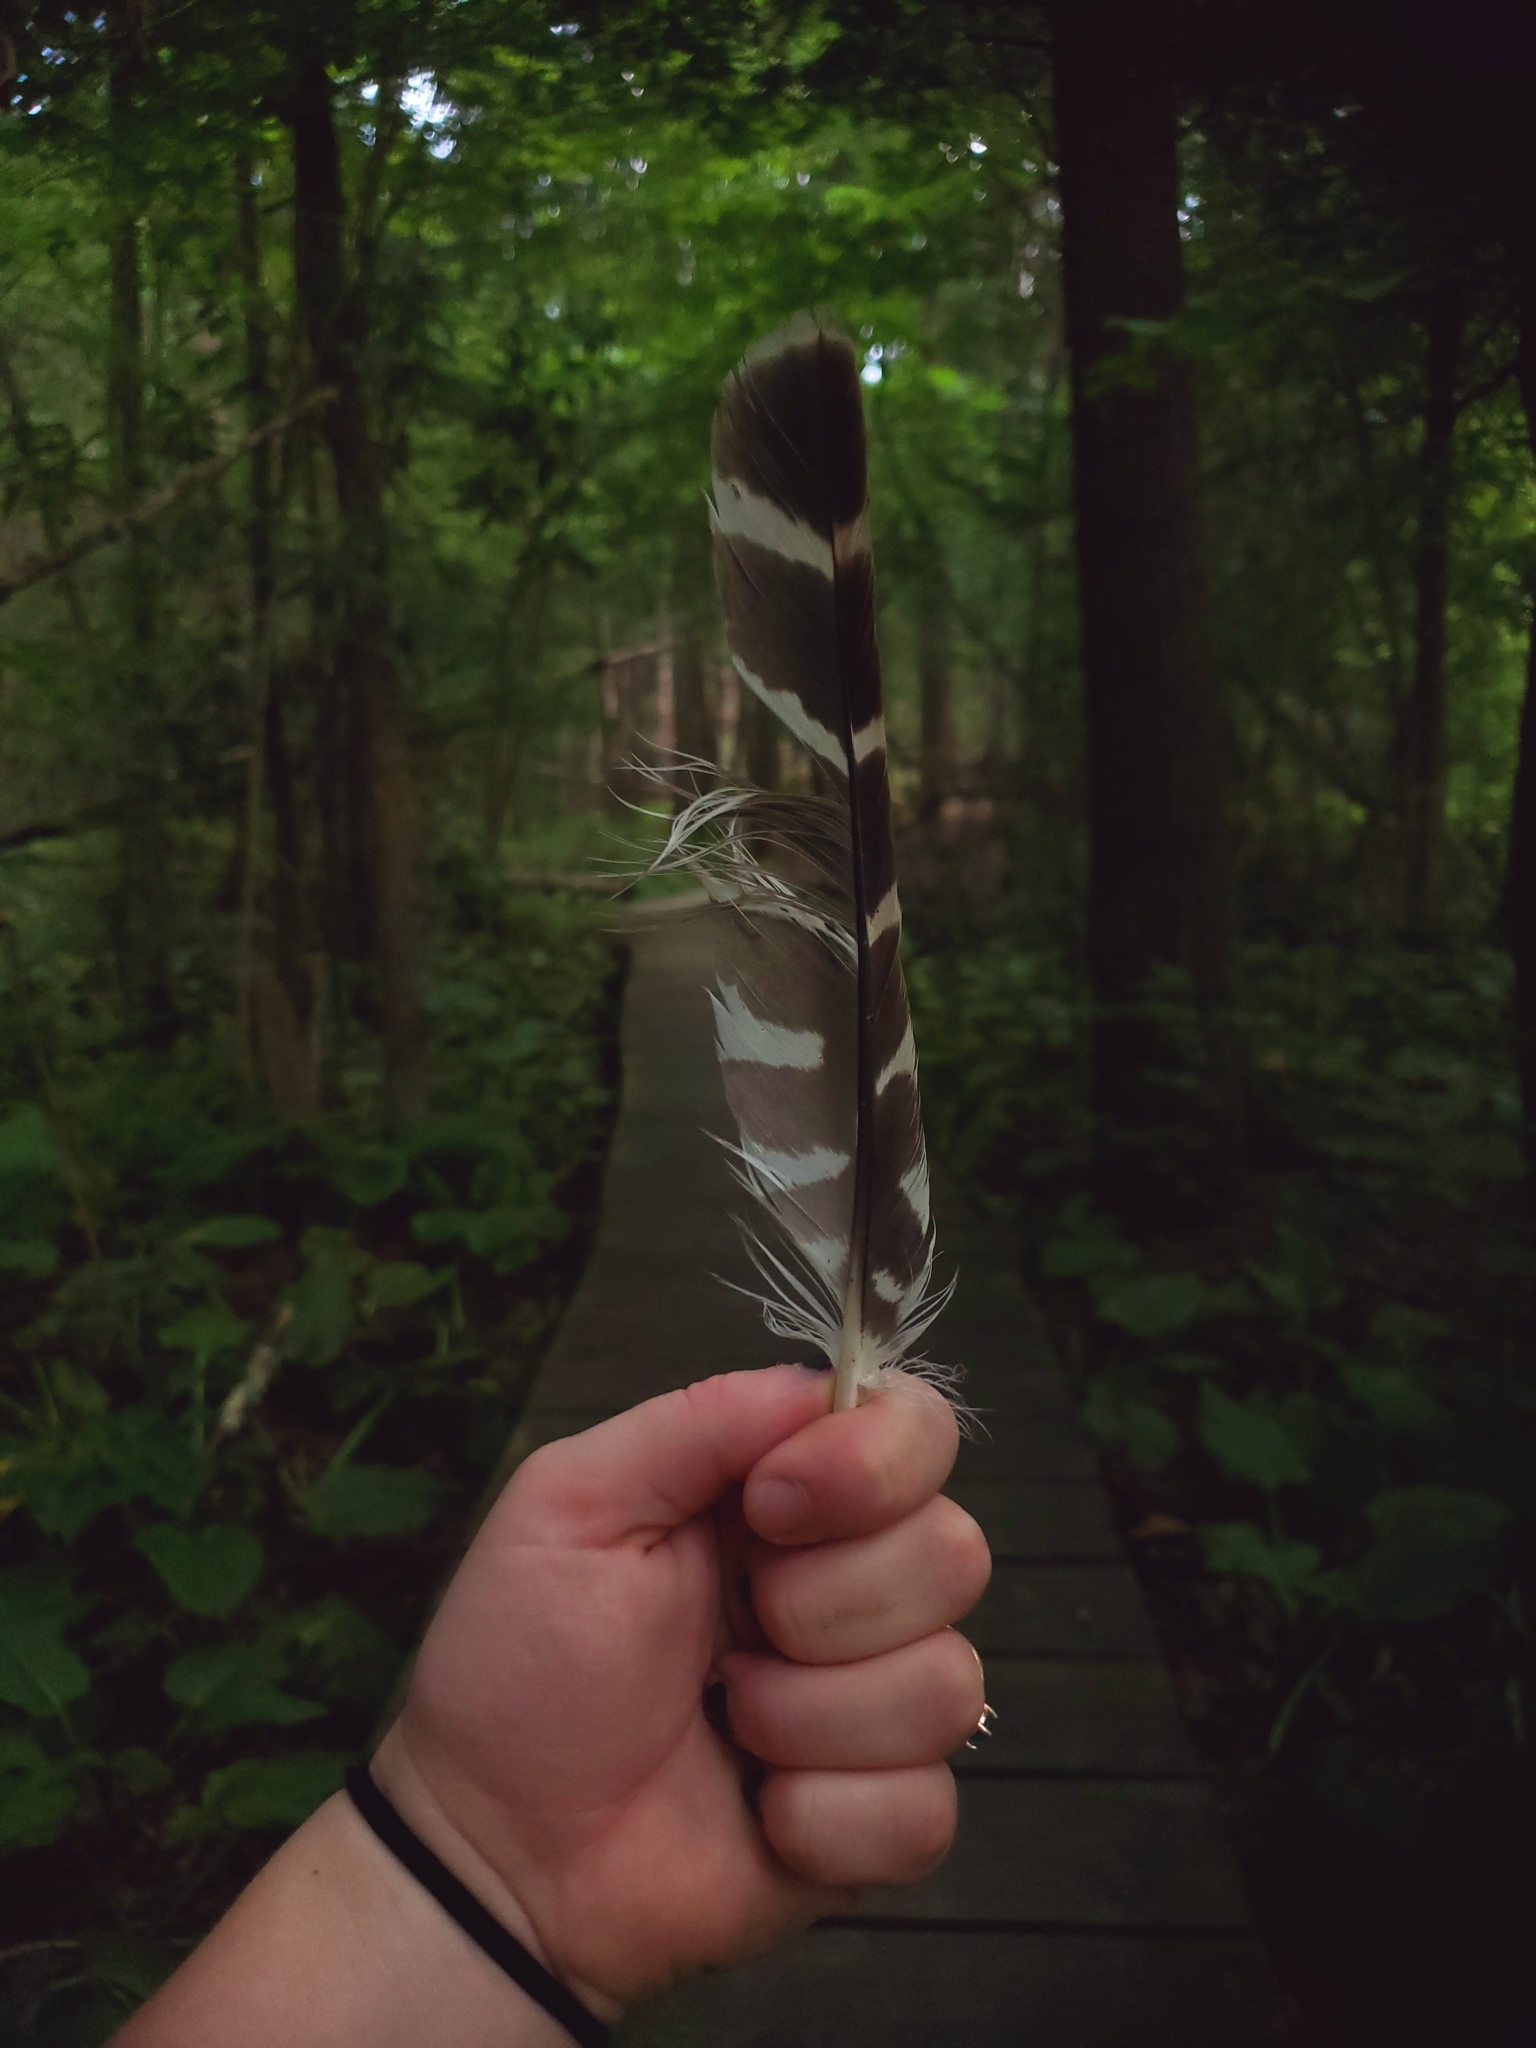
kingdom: Animalia
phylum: Chordata
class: Aves
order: Accipitriformes
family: Accipitridae
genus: Buteo
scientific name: Buteo lineatus
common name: Red-shouldered hawk
